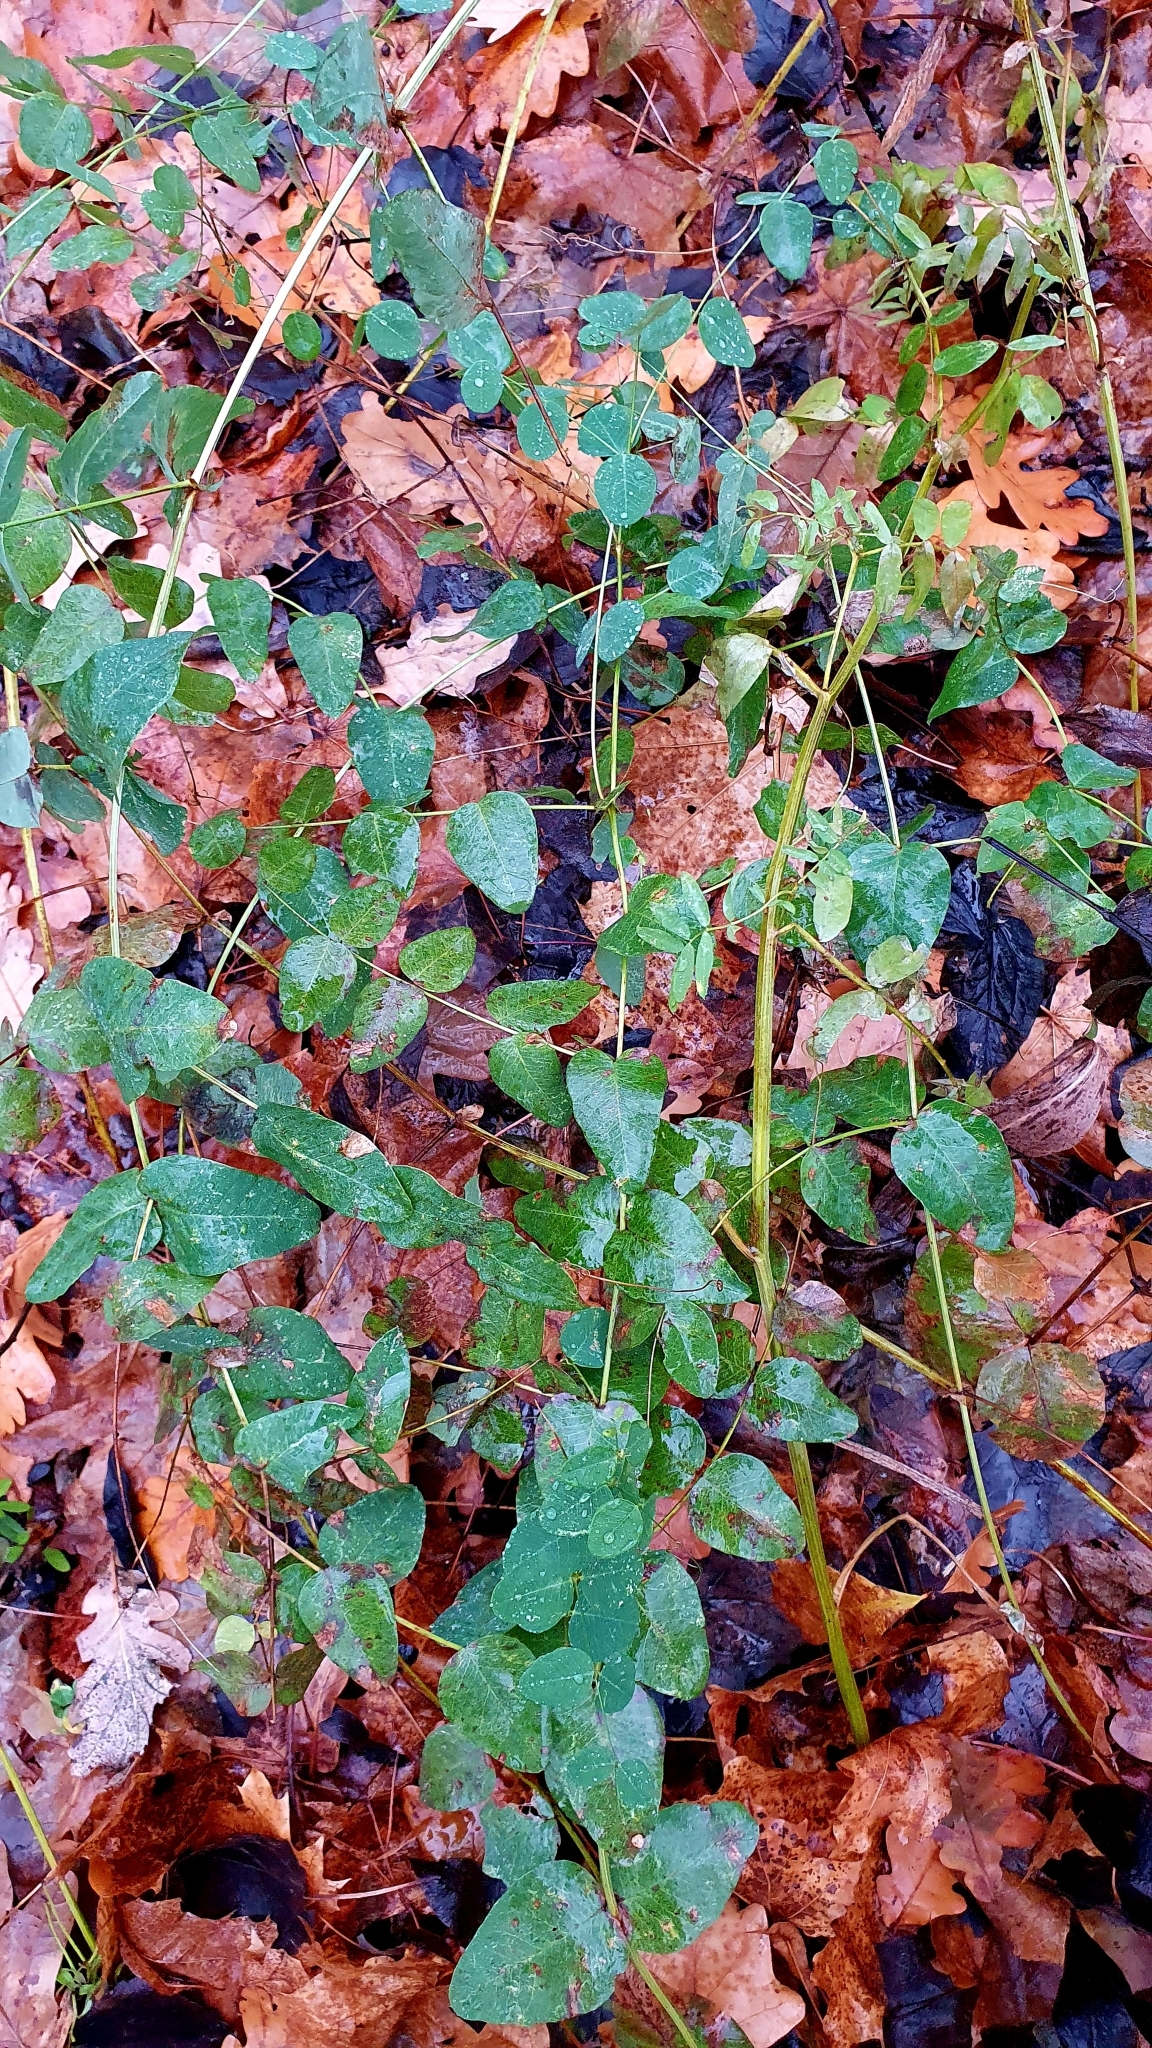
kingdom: Plantae
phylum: Tracheophyta
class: Magnoliopsida
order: Fabales
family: Fabaceae
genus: Vicia
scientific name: Vicia pisiformis
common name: Pale-flower vetch
